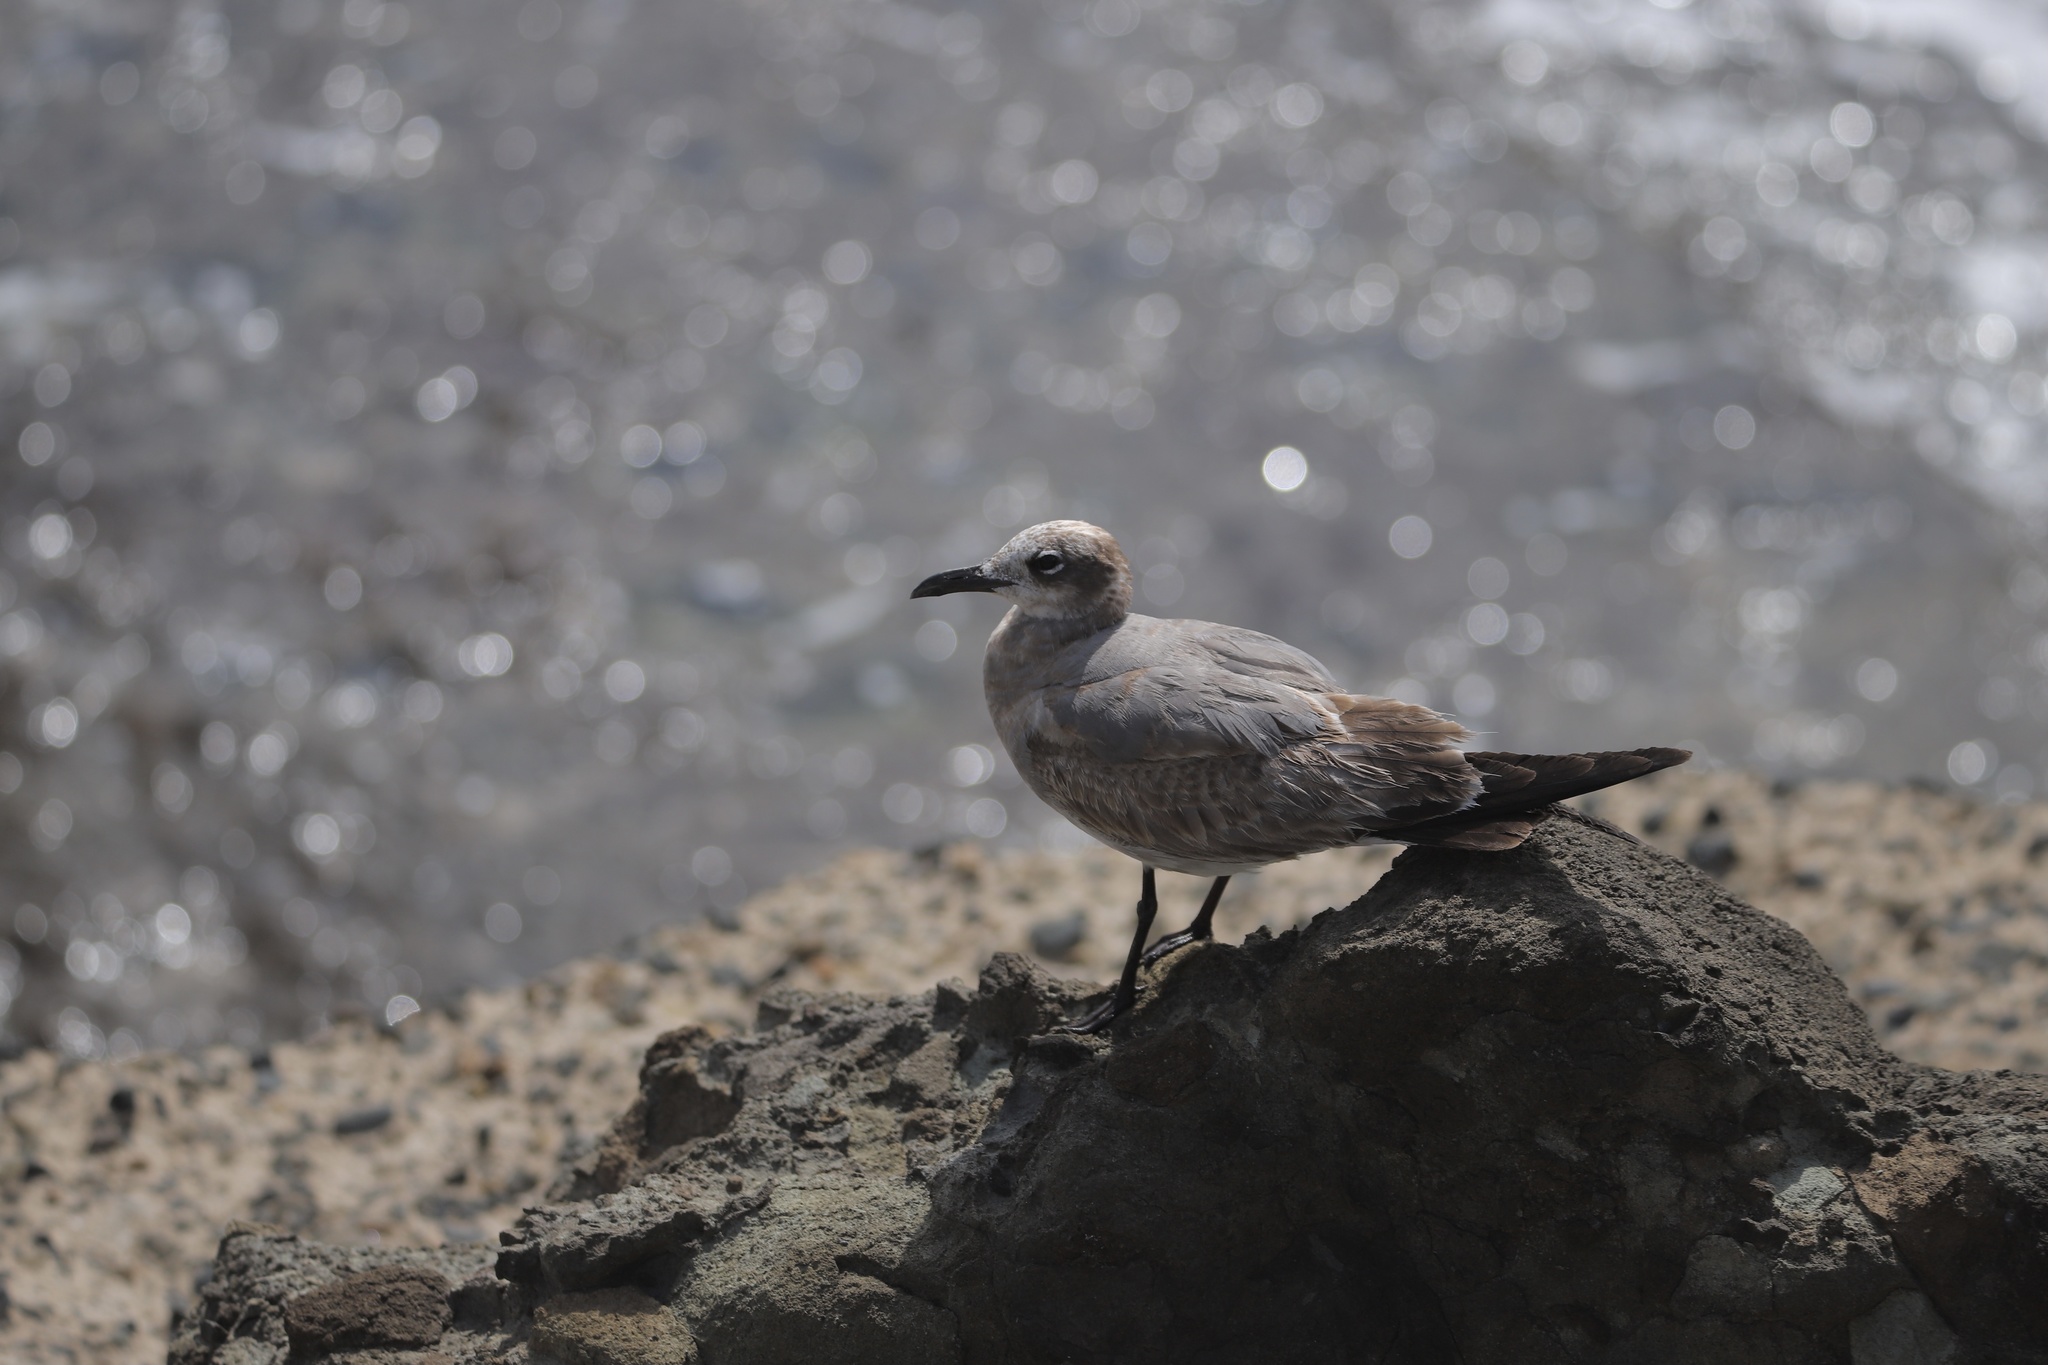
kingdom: Animalia
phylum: Chordata
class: Aves
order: Charadriiformes
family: Laridae
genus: Leucophaeus
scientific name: Leucophaeus atricilla
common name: Laughing gull
